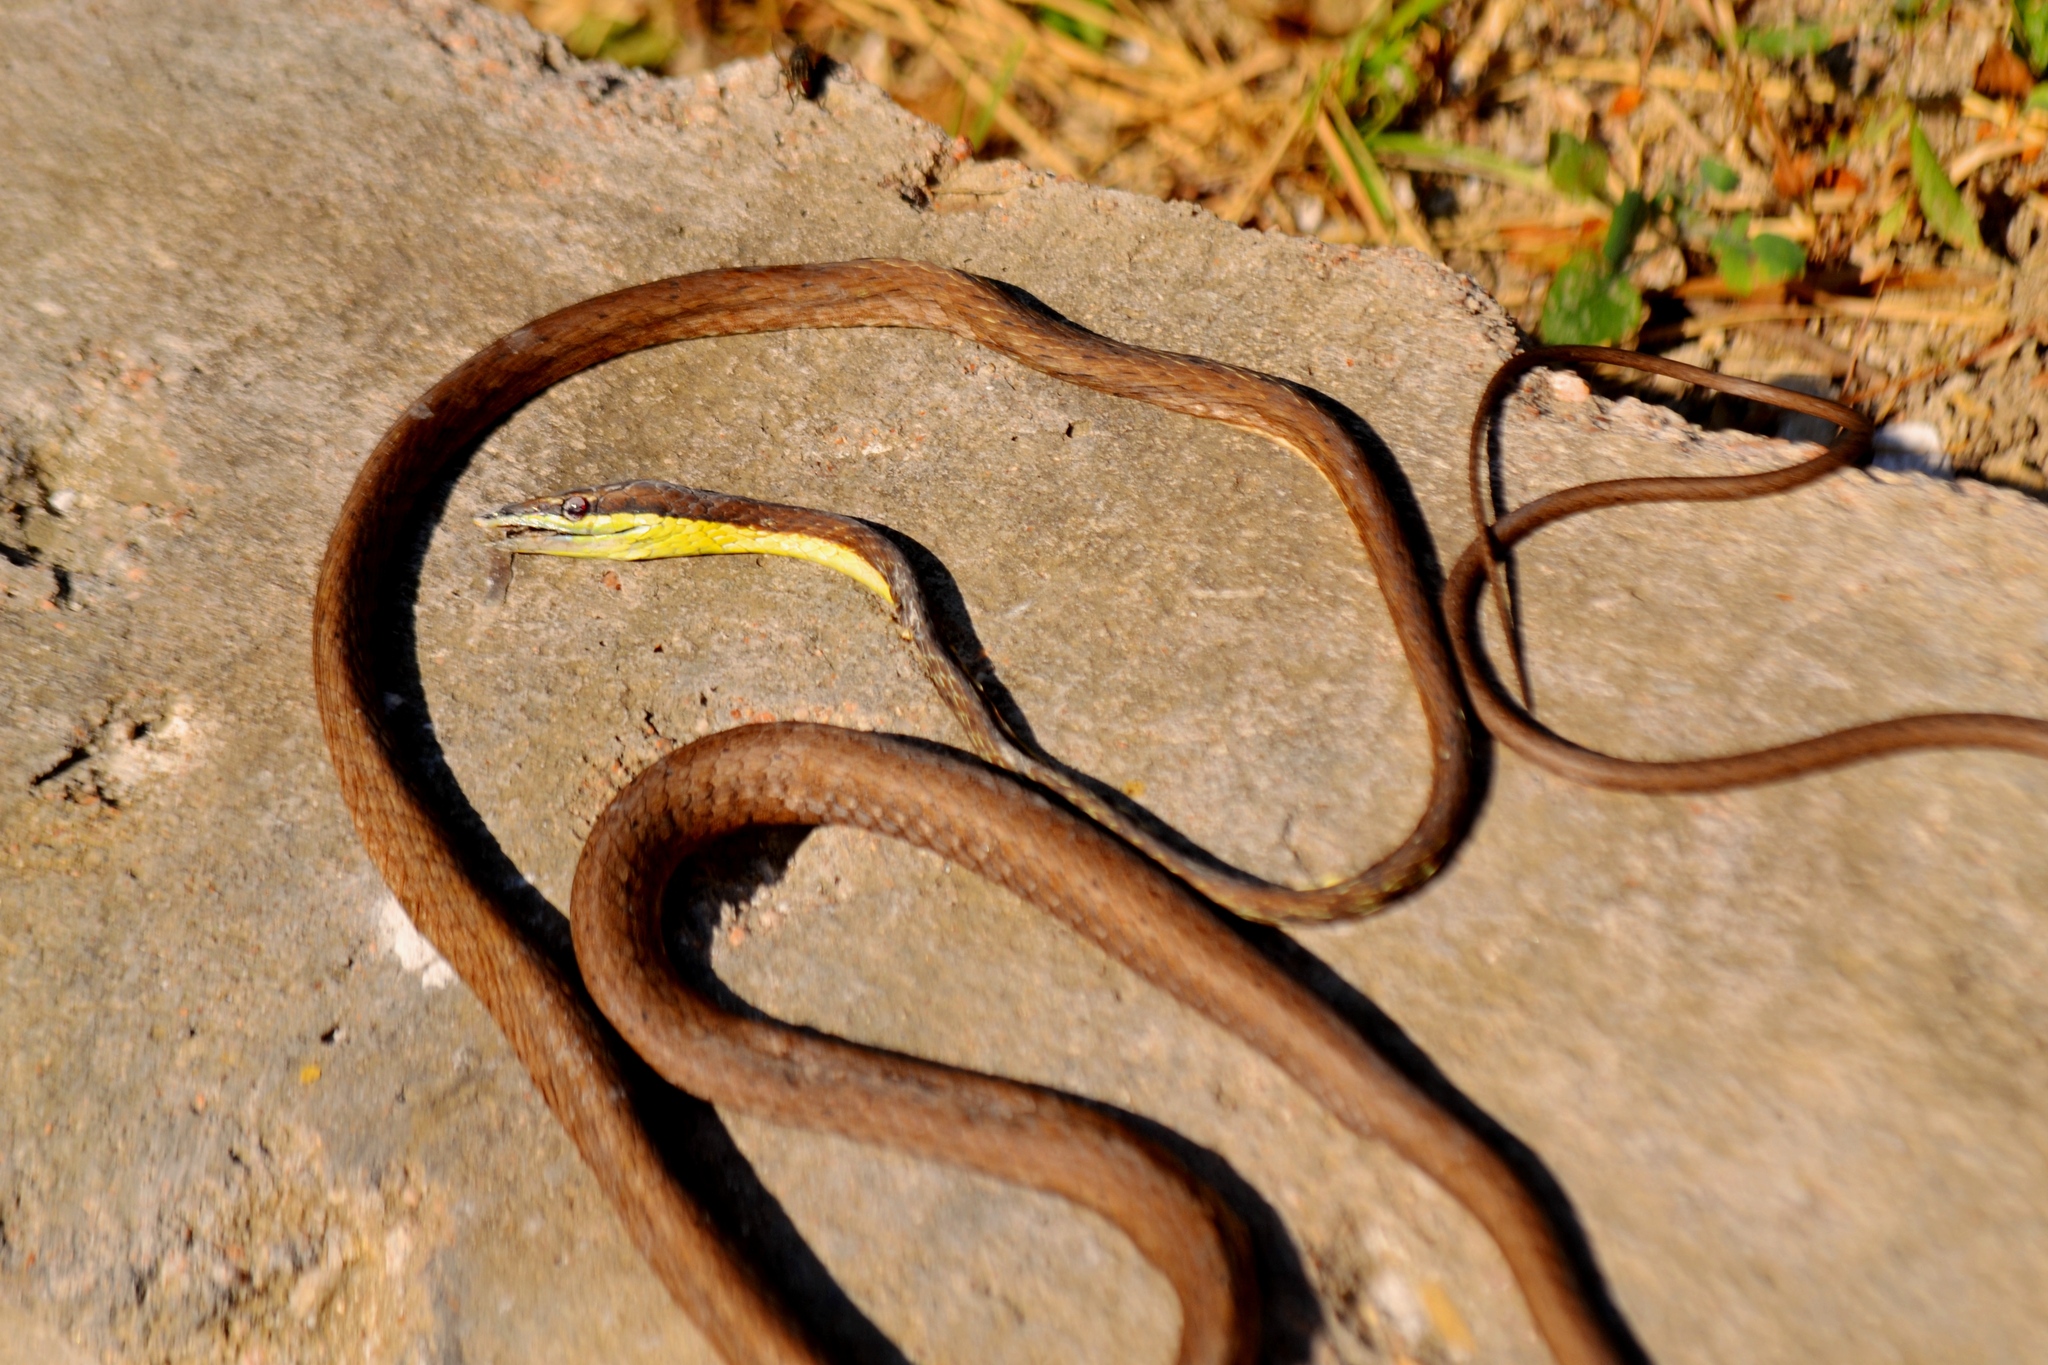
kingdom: Animalia
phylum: Chordata
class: Squamata
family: Colubridae
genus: Oxybelis
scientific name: Oxybelis potosiensis
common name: Gulf coast vine snake
